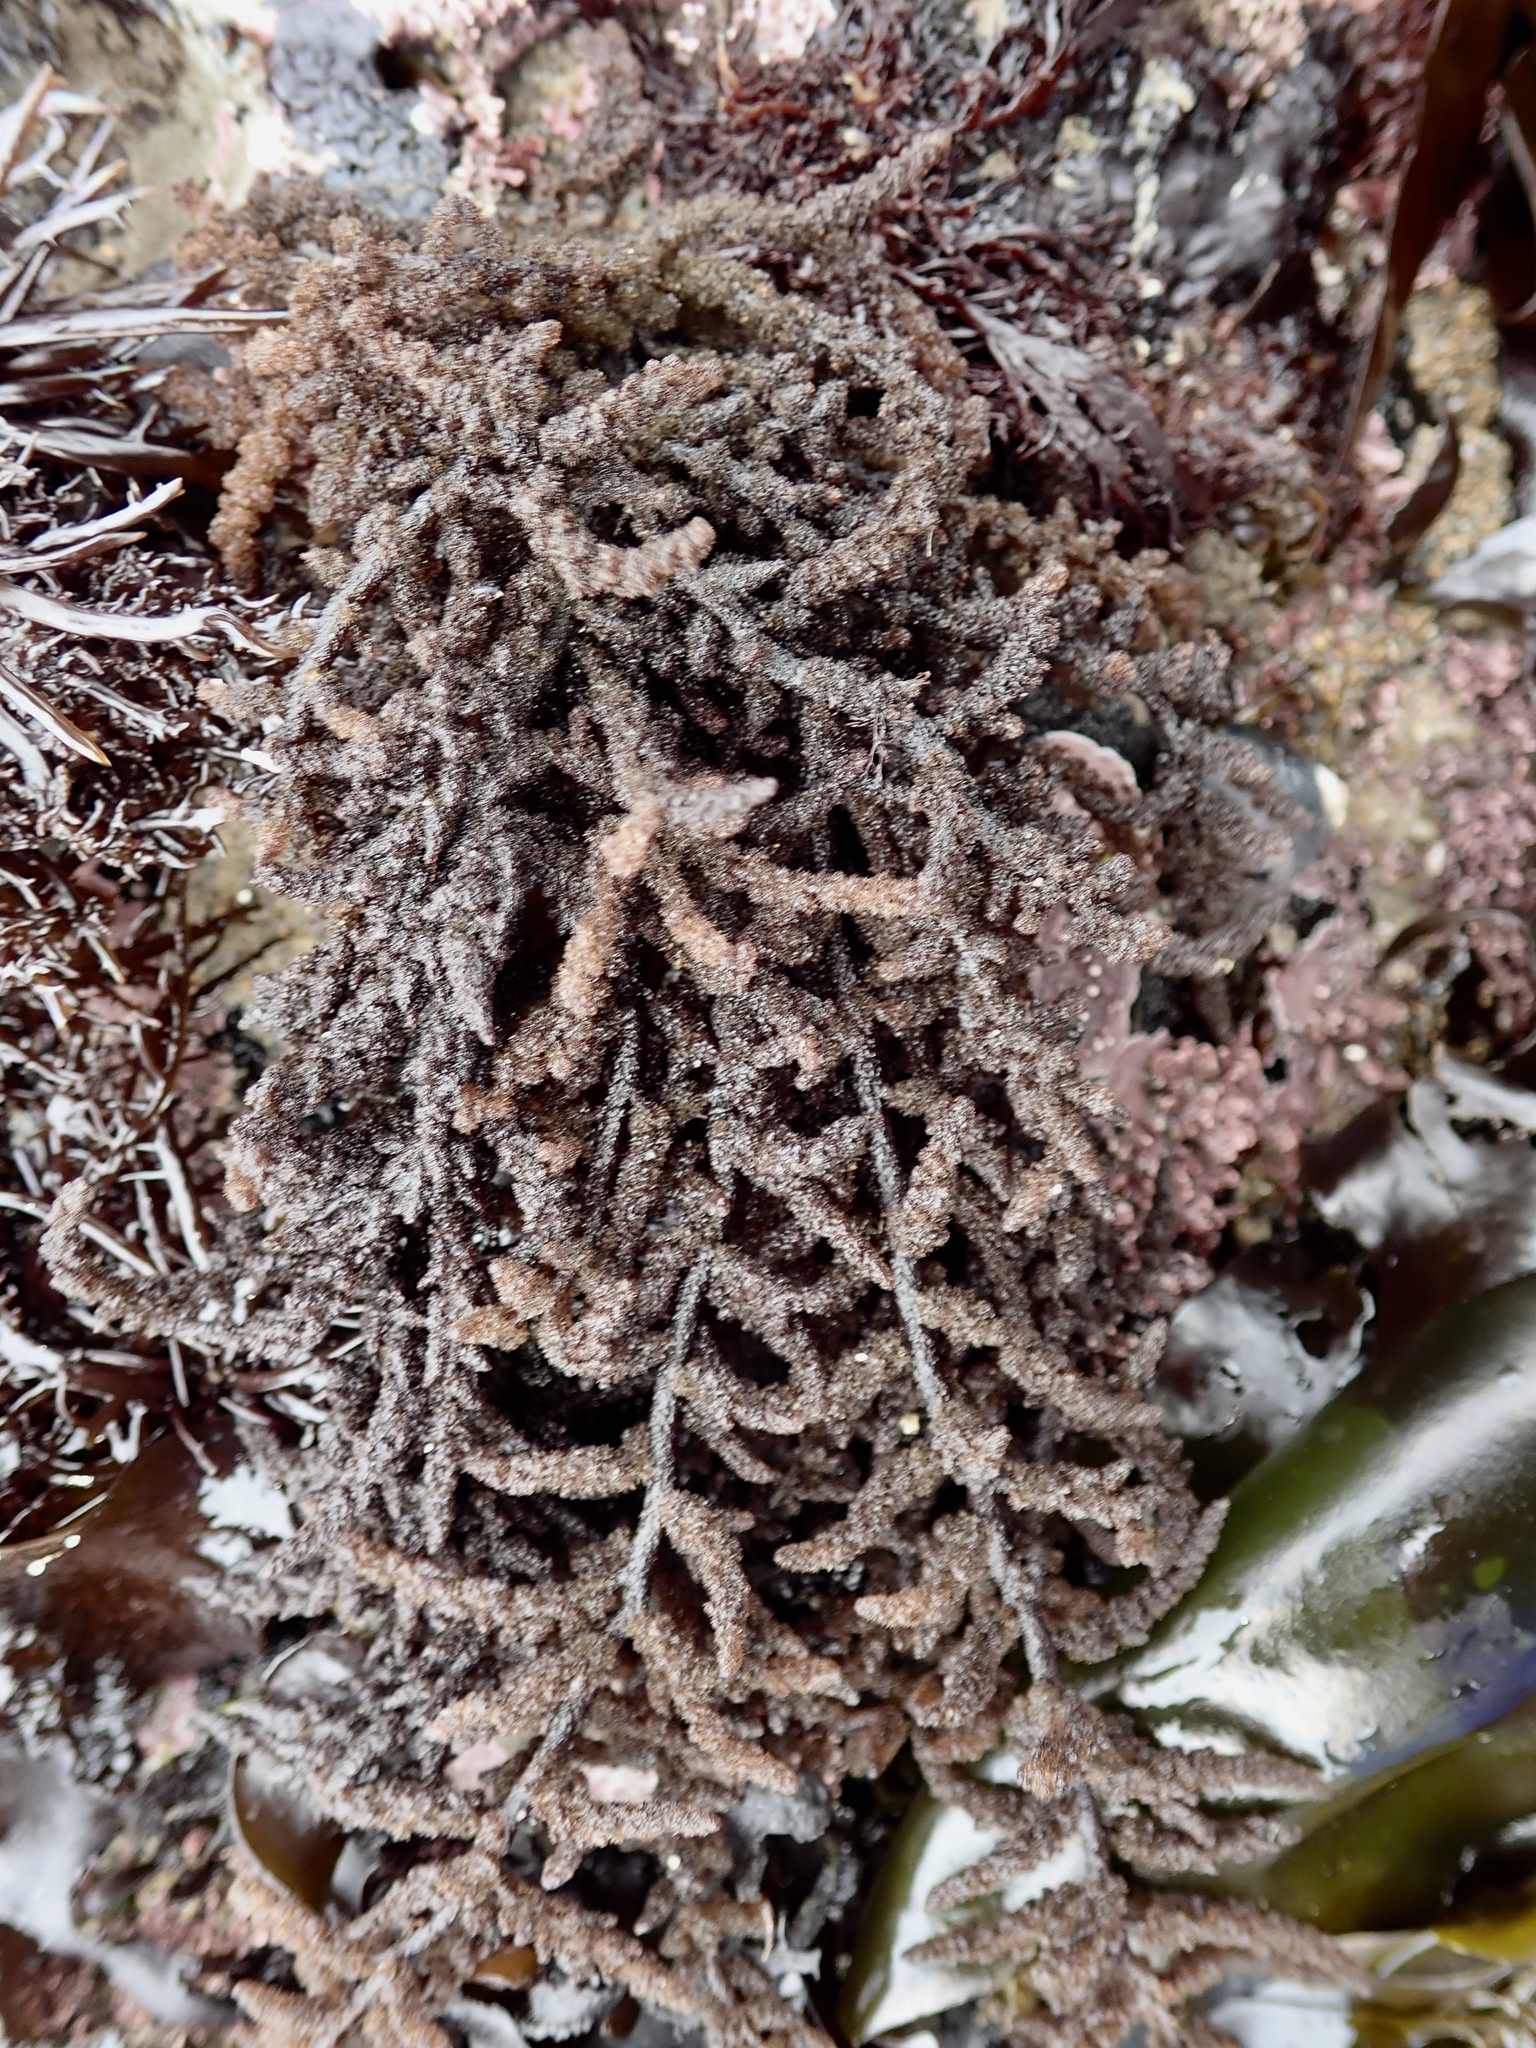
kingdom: Plantae
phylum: Rhodophyta
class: Florideophyceae
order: Ceramiales
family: Callithamniaceae
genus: Callithamnion
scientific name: Callithamnion pikeanum
